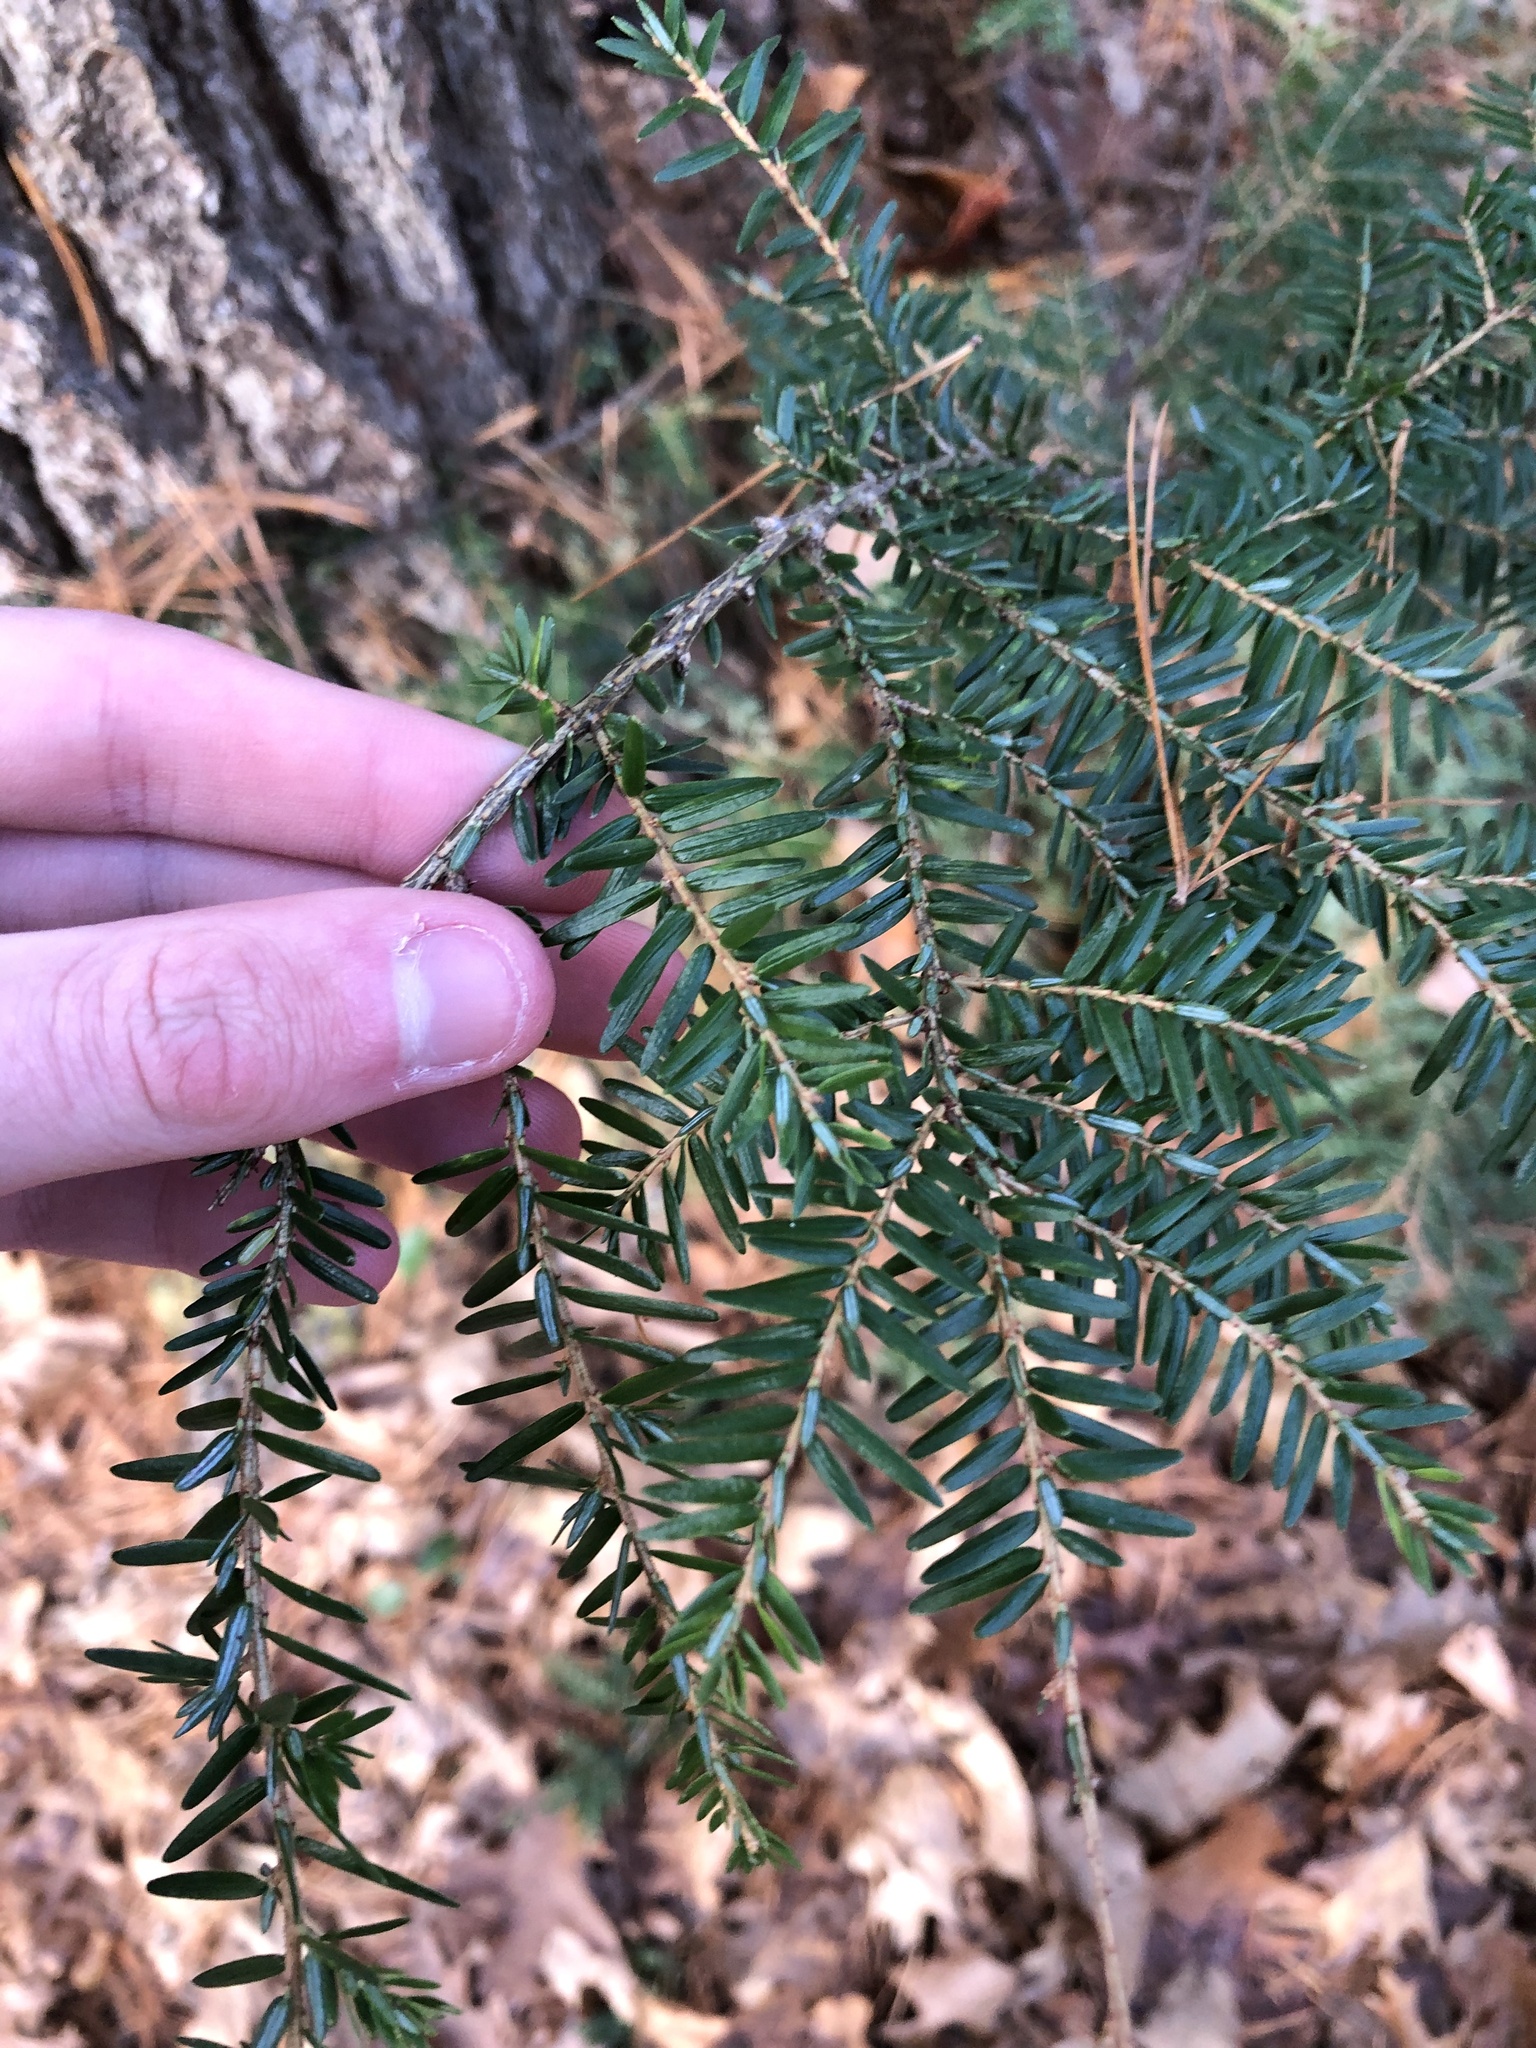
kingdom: Plantae
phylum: Tracheophyta
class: Pinopsida
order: Pinales
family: Pinaceae
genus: Tsuga
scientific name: Tsuga canadensis
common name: Eastern hemlock
